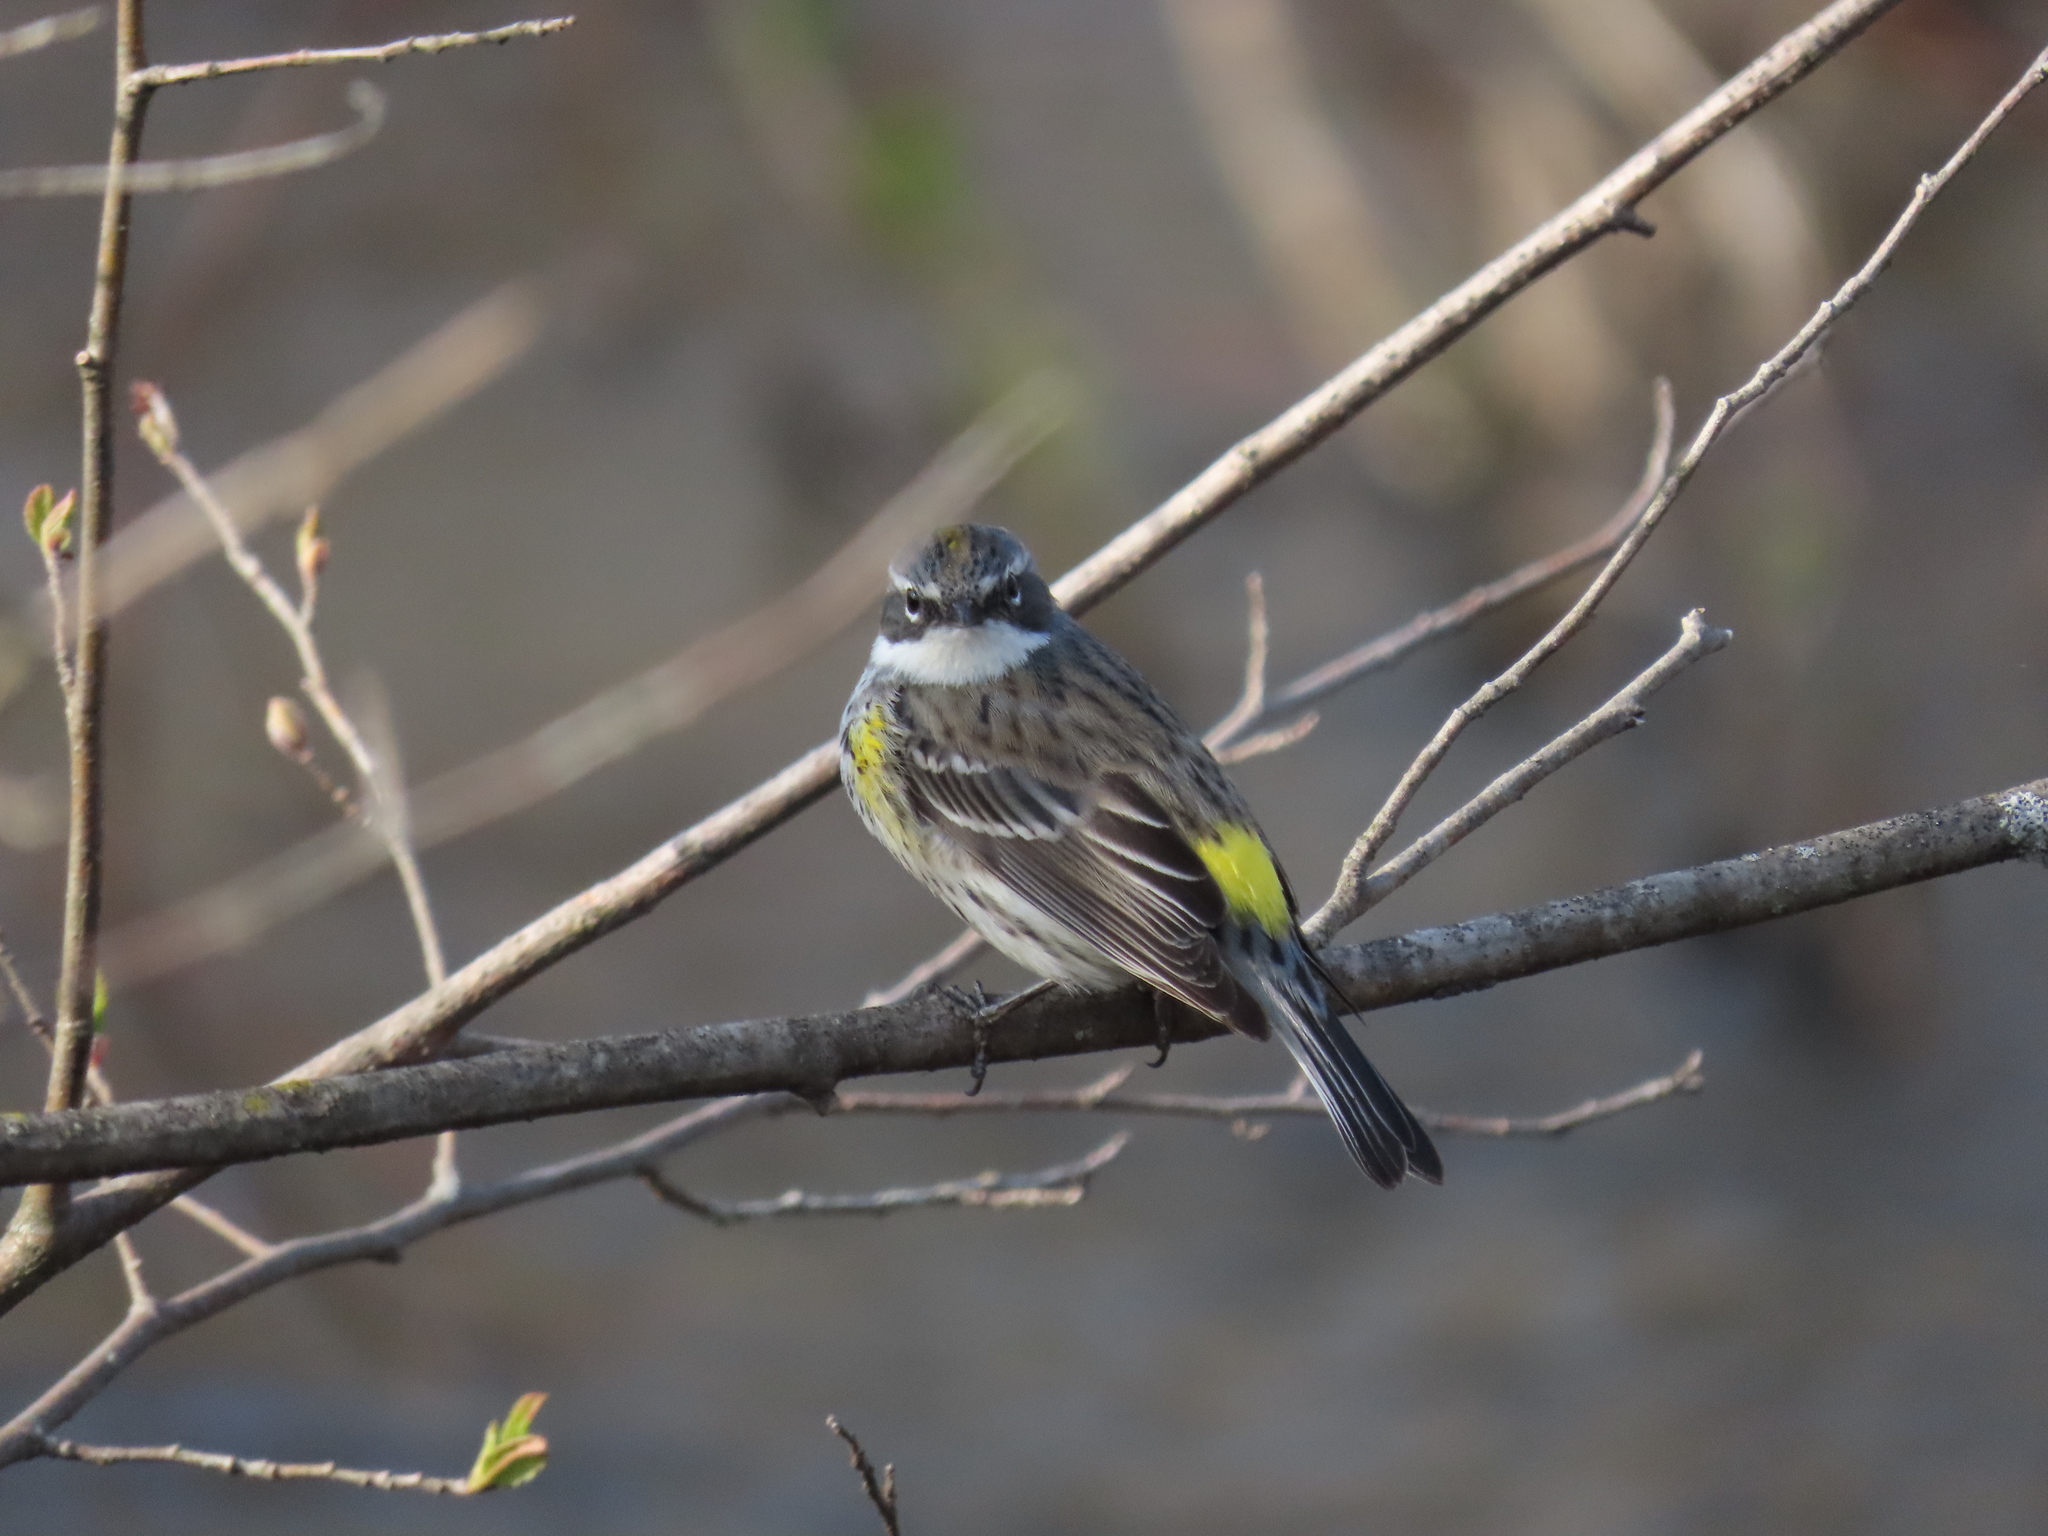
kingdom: Animalia
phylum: Chordata
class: Aves
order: Passeriformes
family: Parulidae
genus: Setophaga
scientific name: Setophaga coronata
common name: Myrtle warbler
